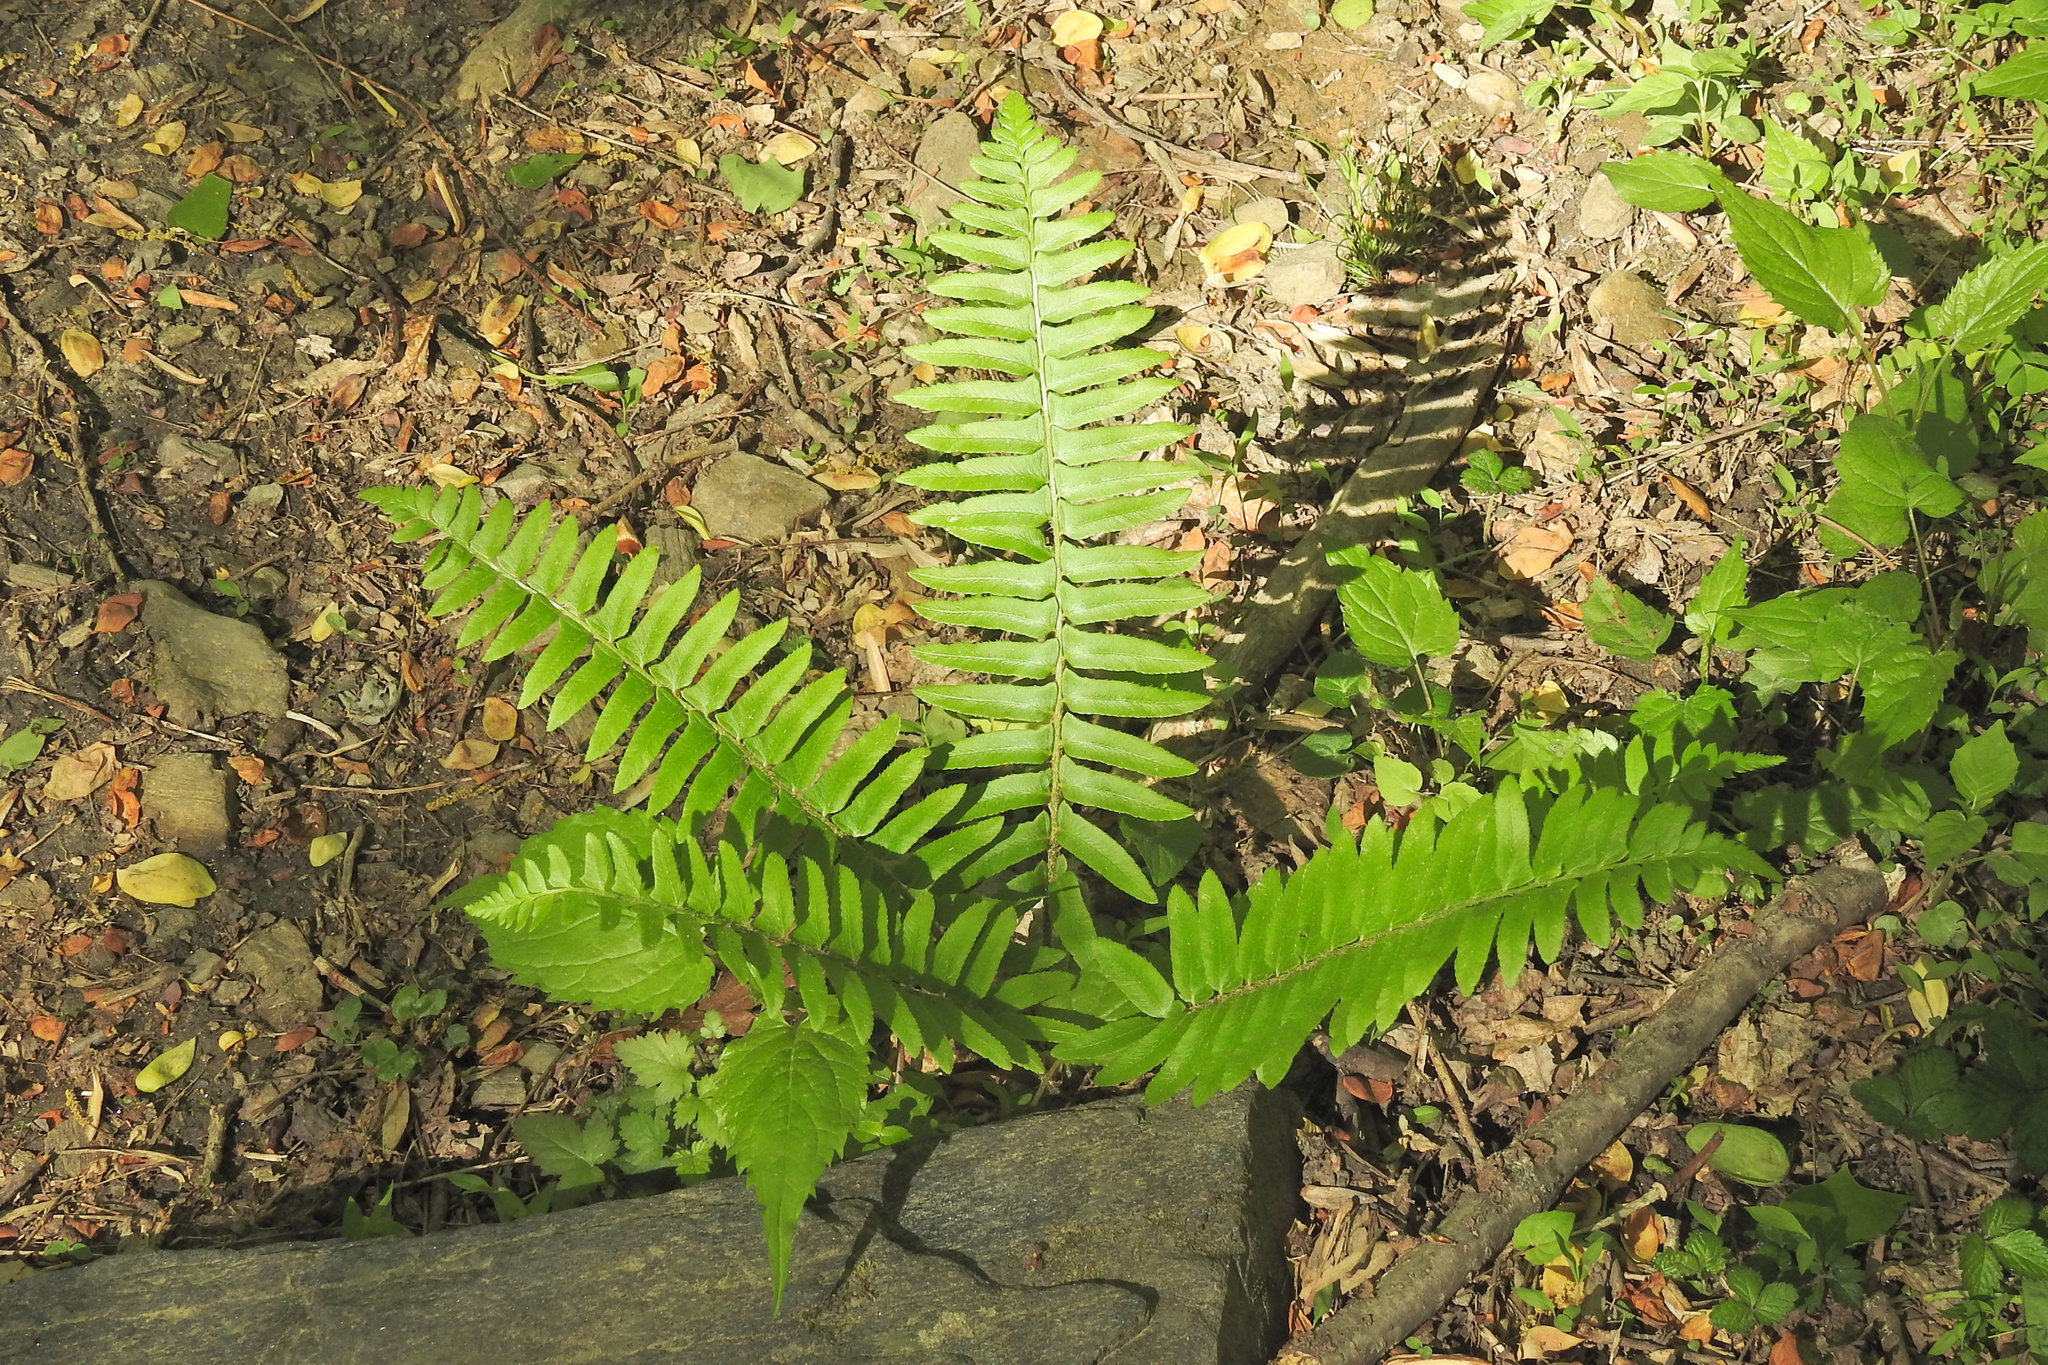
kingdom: Plantae
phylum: Tracheophyta
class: Polypodiopsida
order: Polypodiales
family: Dryopteridaceae
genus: Polystichum
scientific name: Polystichum acrostichoides
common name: Christmas fern
